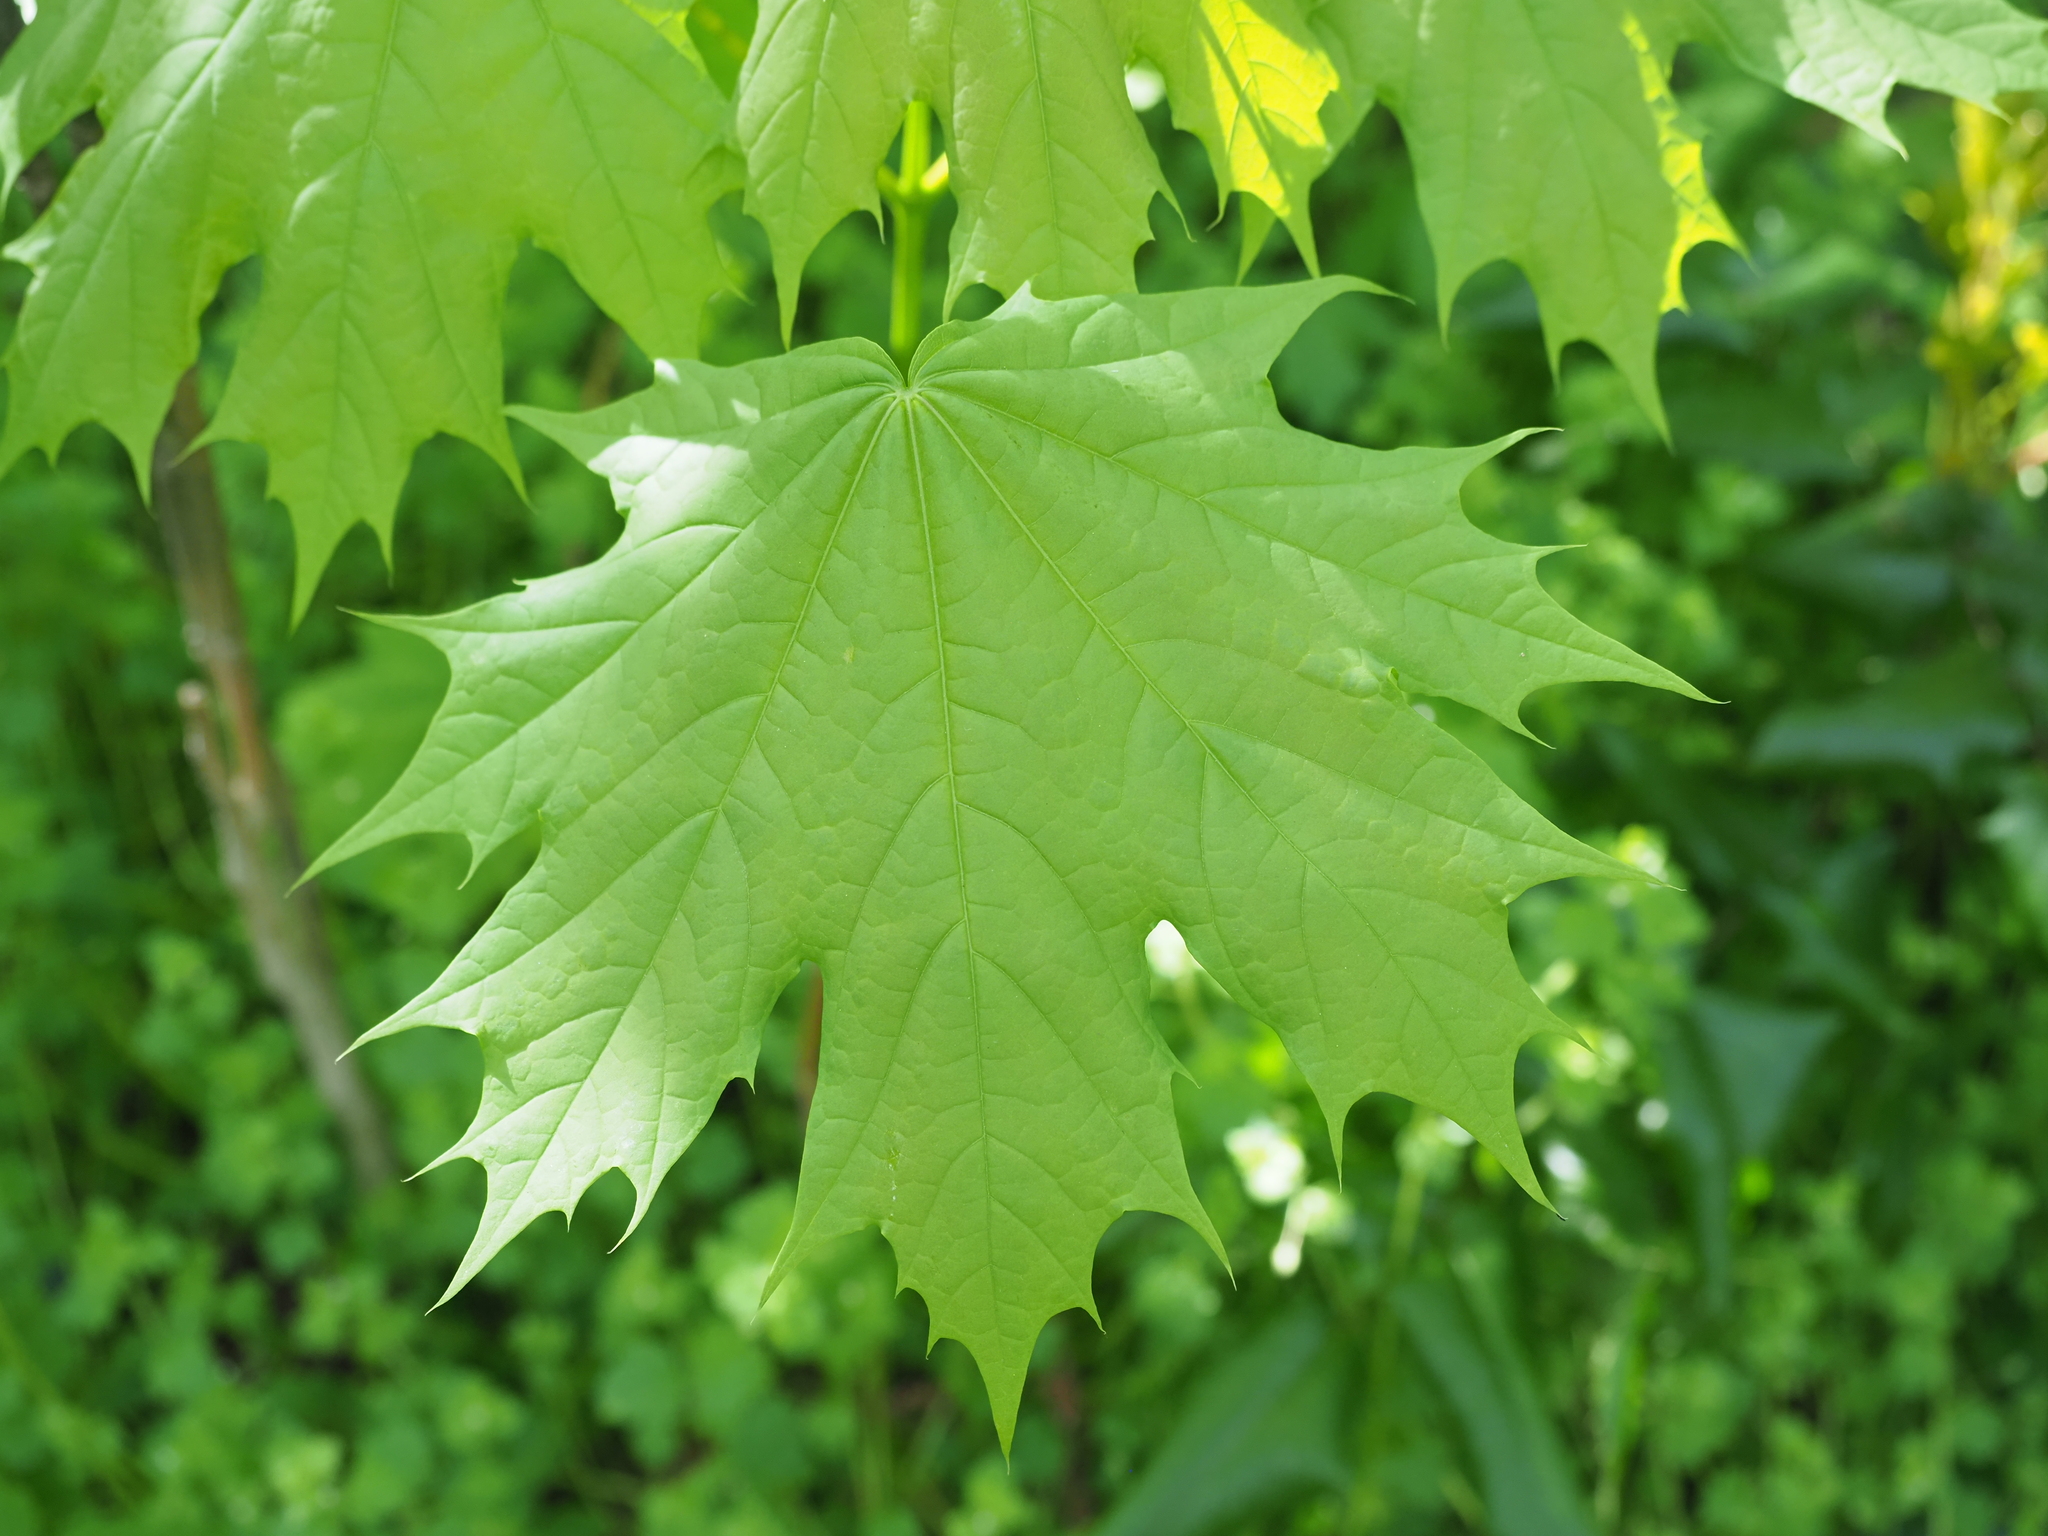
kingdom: Plantae
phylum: Tracheophyta
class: Magnoliopsida
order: Sapindales
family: Sapindaceae
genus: Acer
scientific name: Acer platanoides
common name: Norway maple
